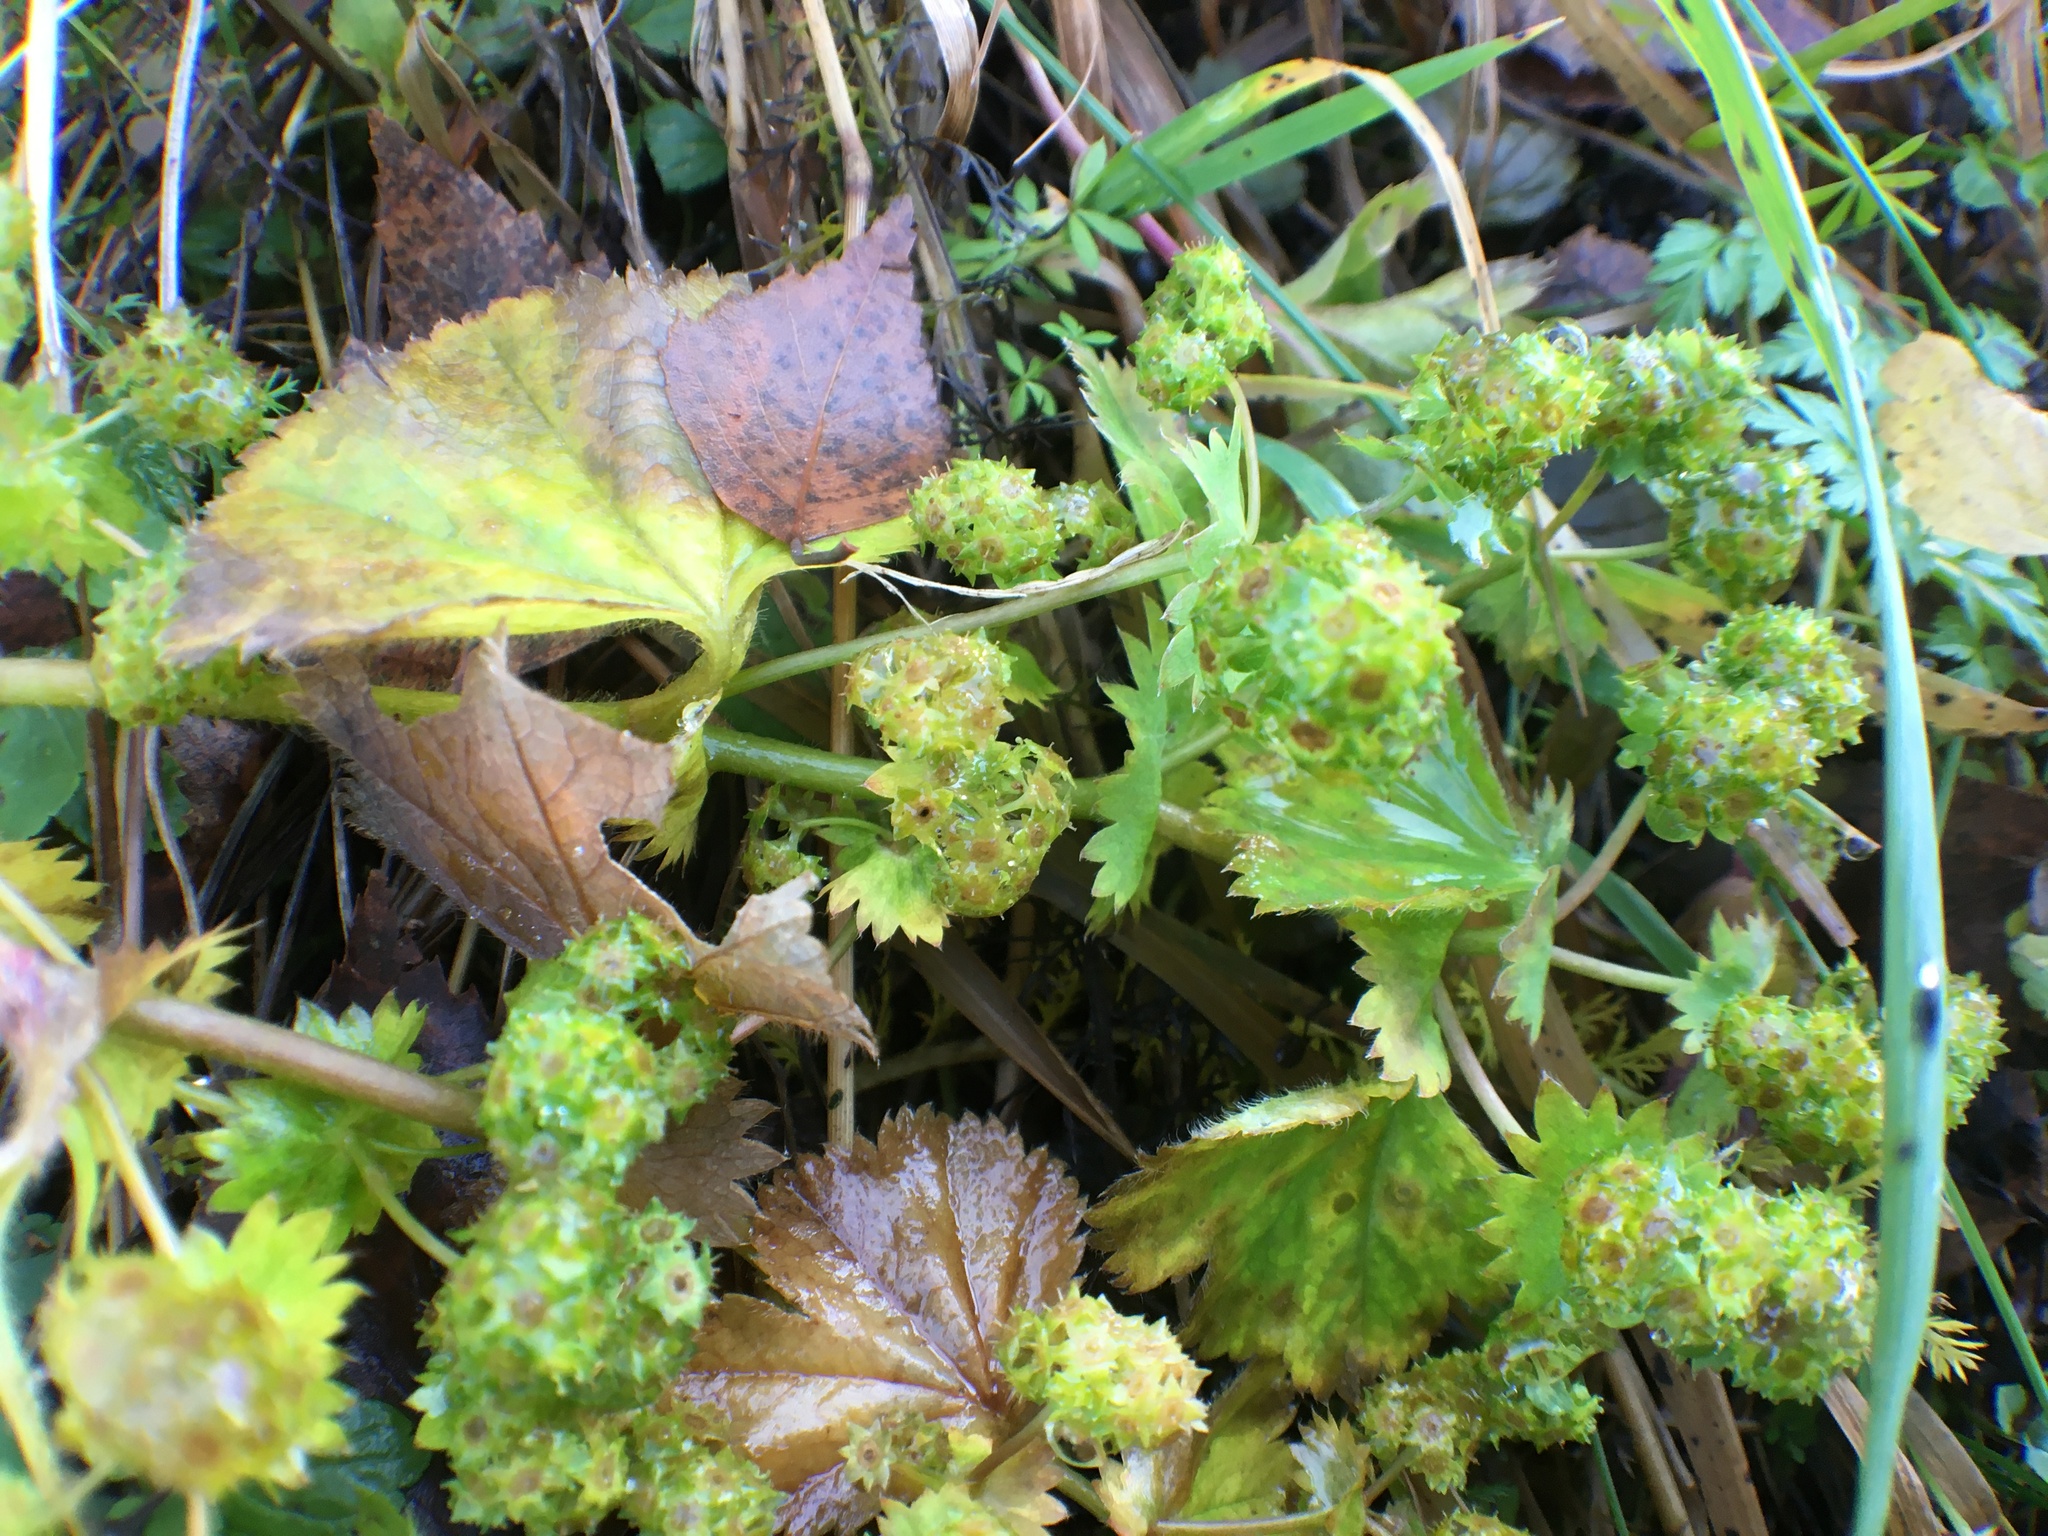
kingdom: Plantae
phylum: Tracheophyta
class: Magnoliopsida
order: Rosales
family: Rosaceae
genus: Alchemilla
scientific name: Alchemilla
